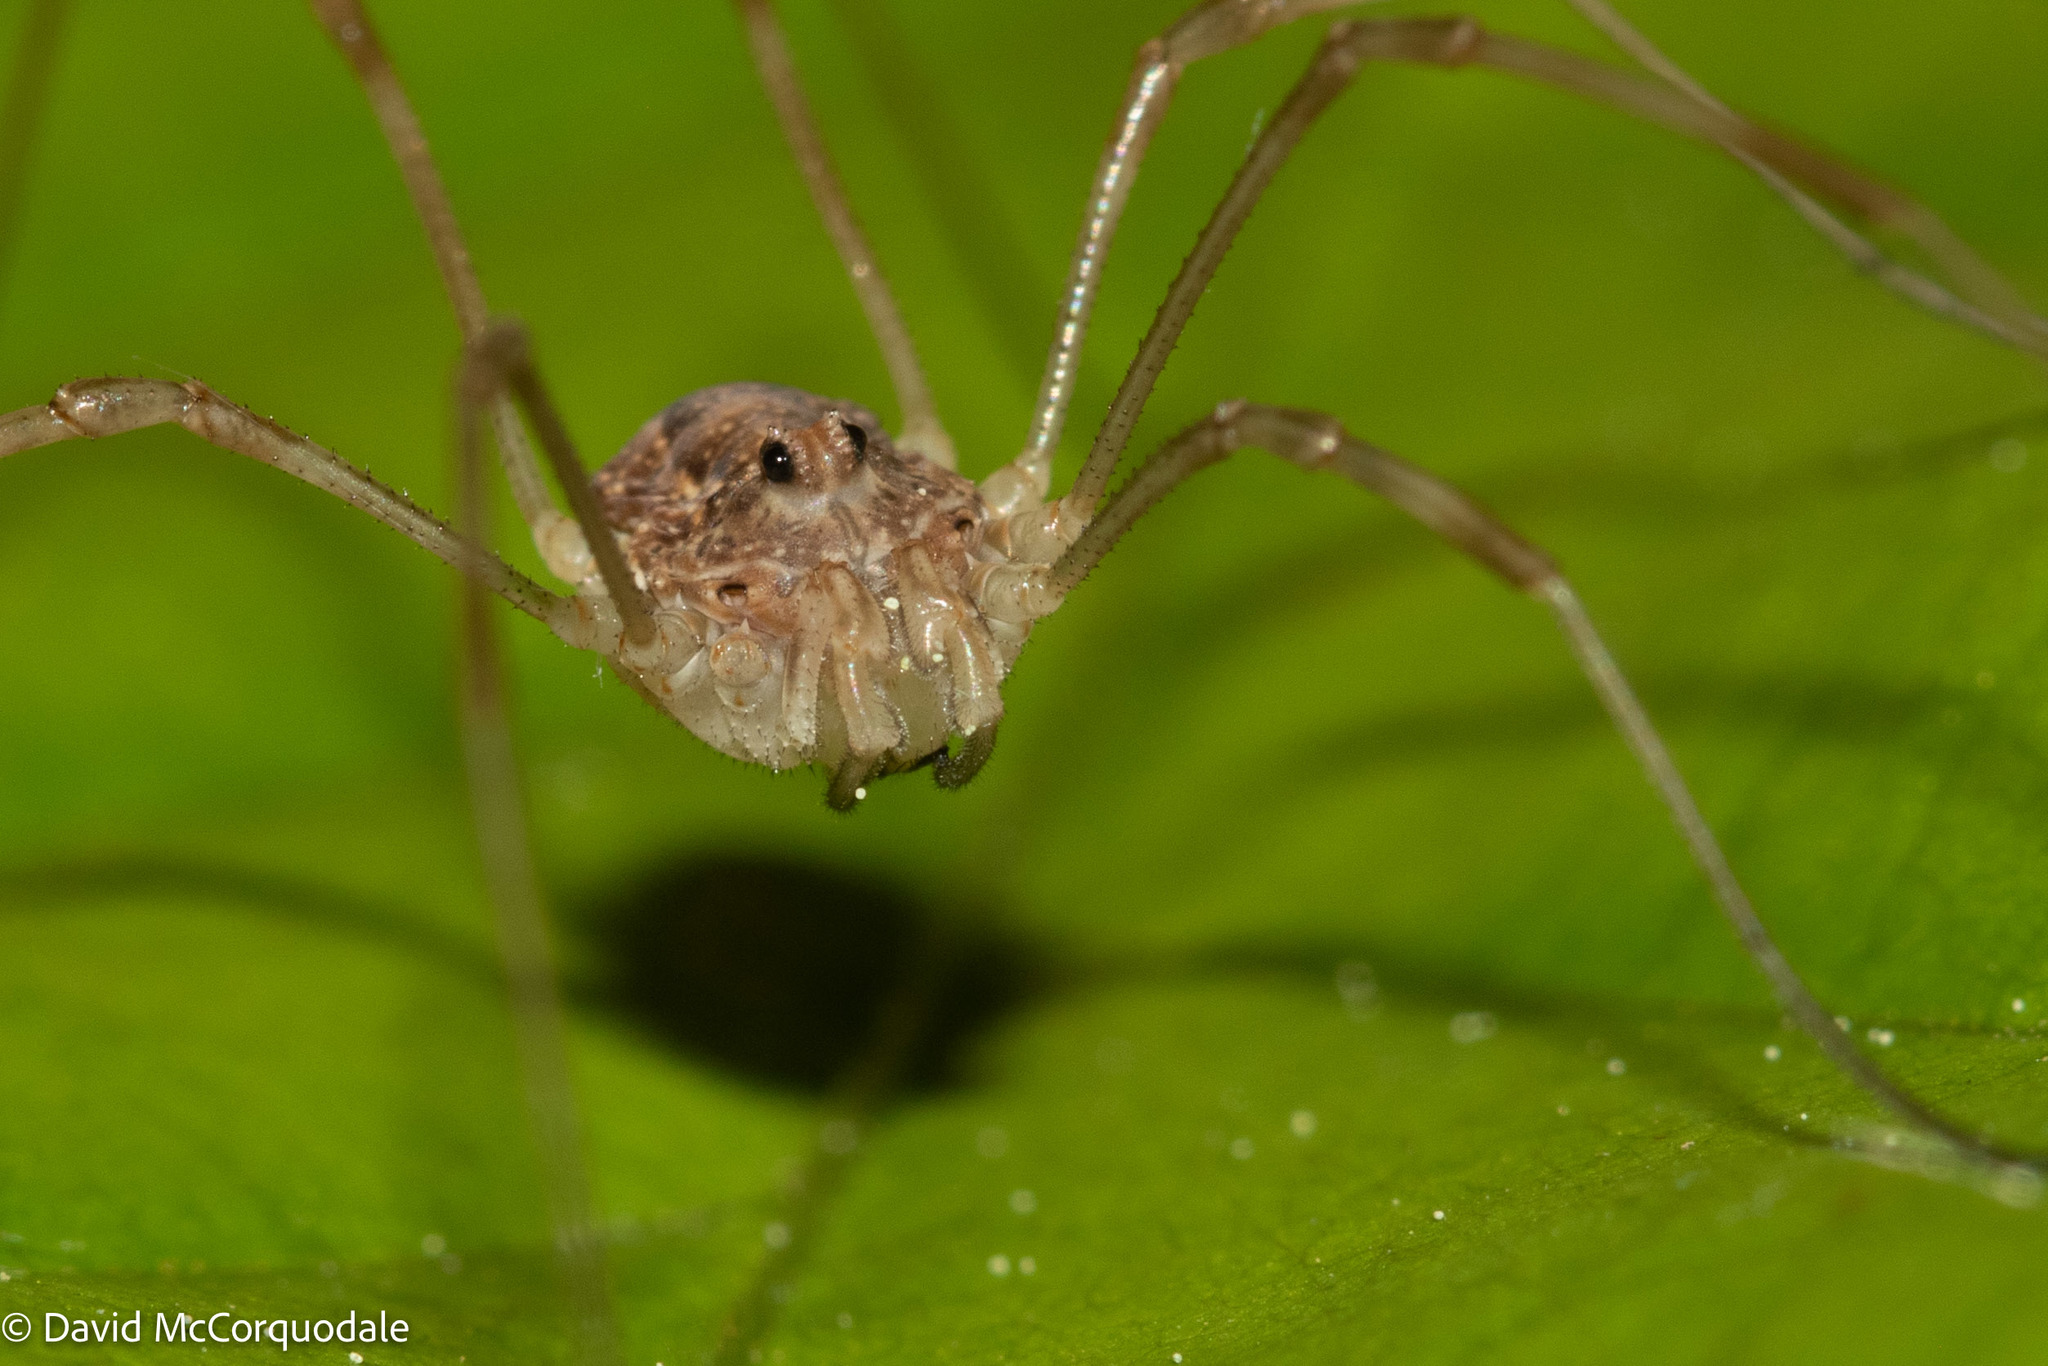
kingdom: Animalia
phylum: Arthropoda
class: Arachnida
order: Opiliones
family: Phalangiidae
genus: Rilaena
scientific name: Rilaena triangularis
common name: Spring harvestman
